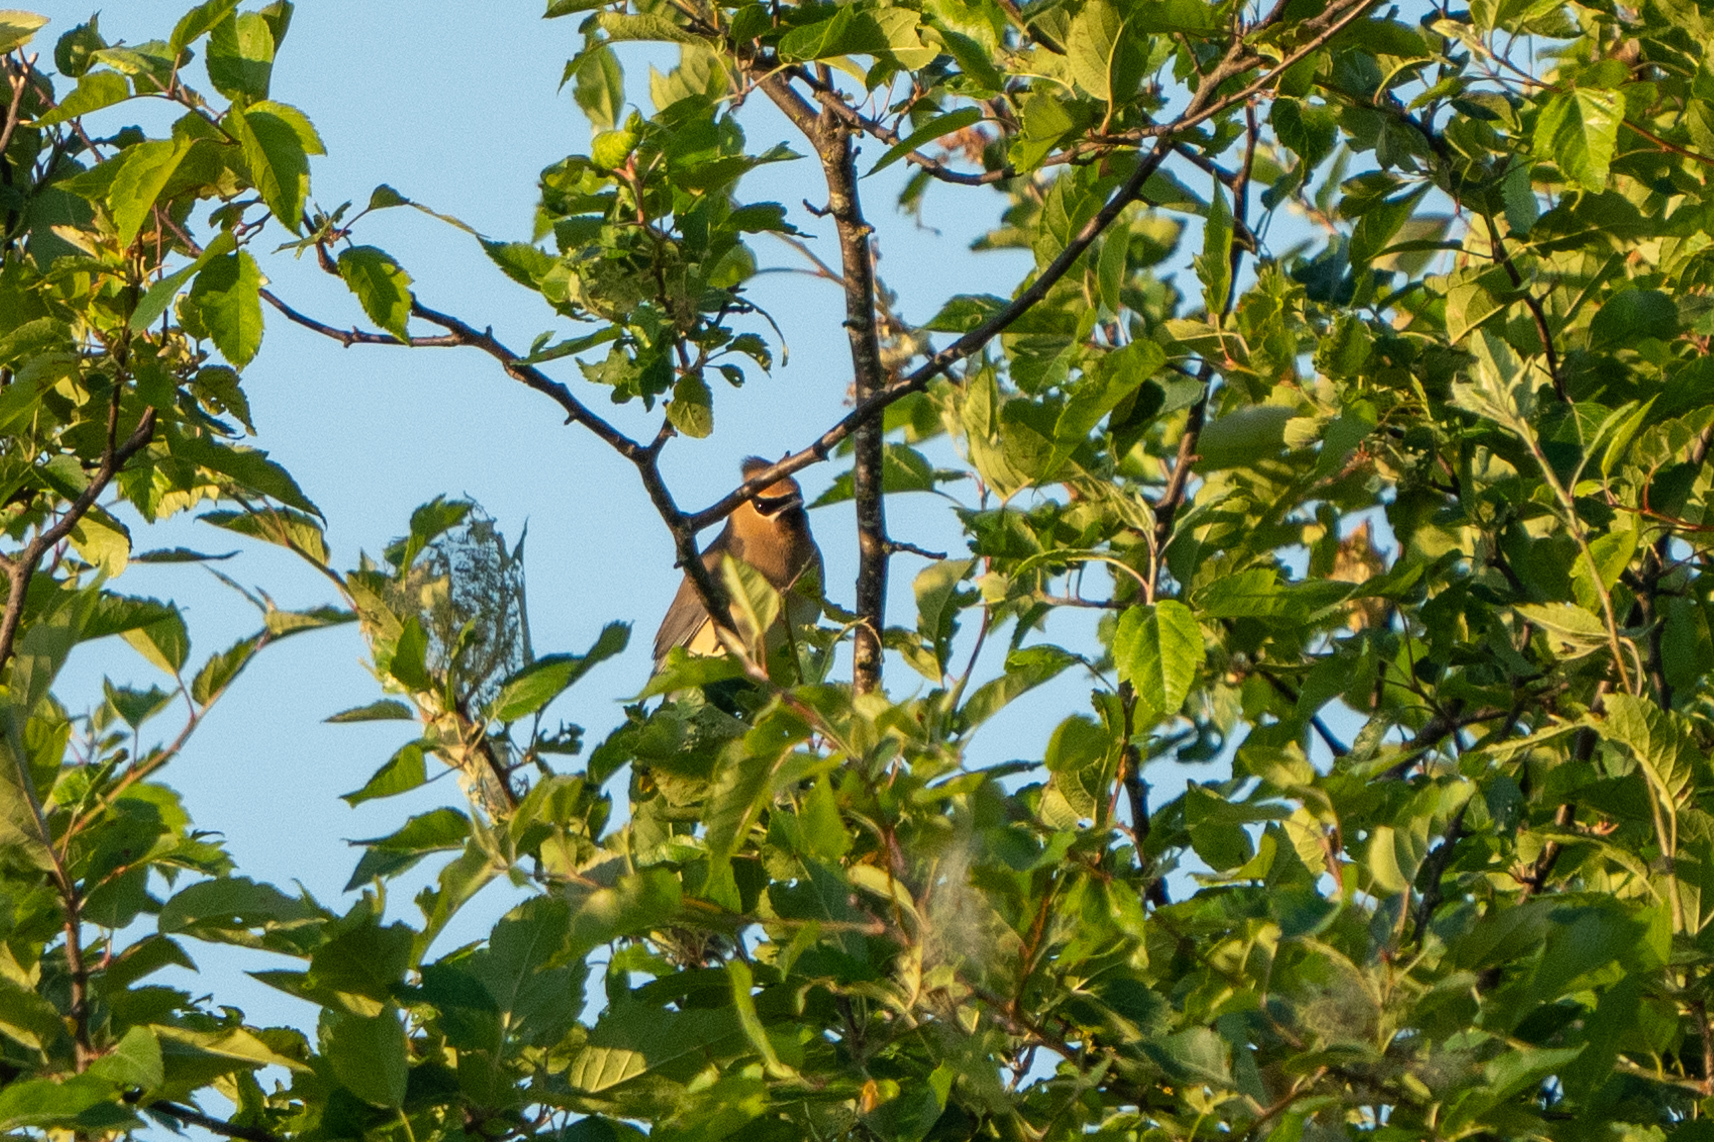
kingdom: Animalia
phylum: Chordata
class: Aves
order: Passeriformes
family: Bombycillidae
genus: Bombycilla
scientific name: Bombycilla cedrorum
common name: Cedar waxwing
